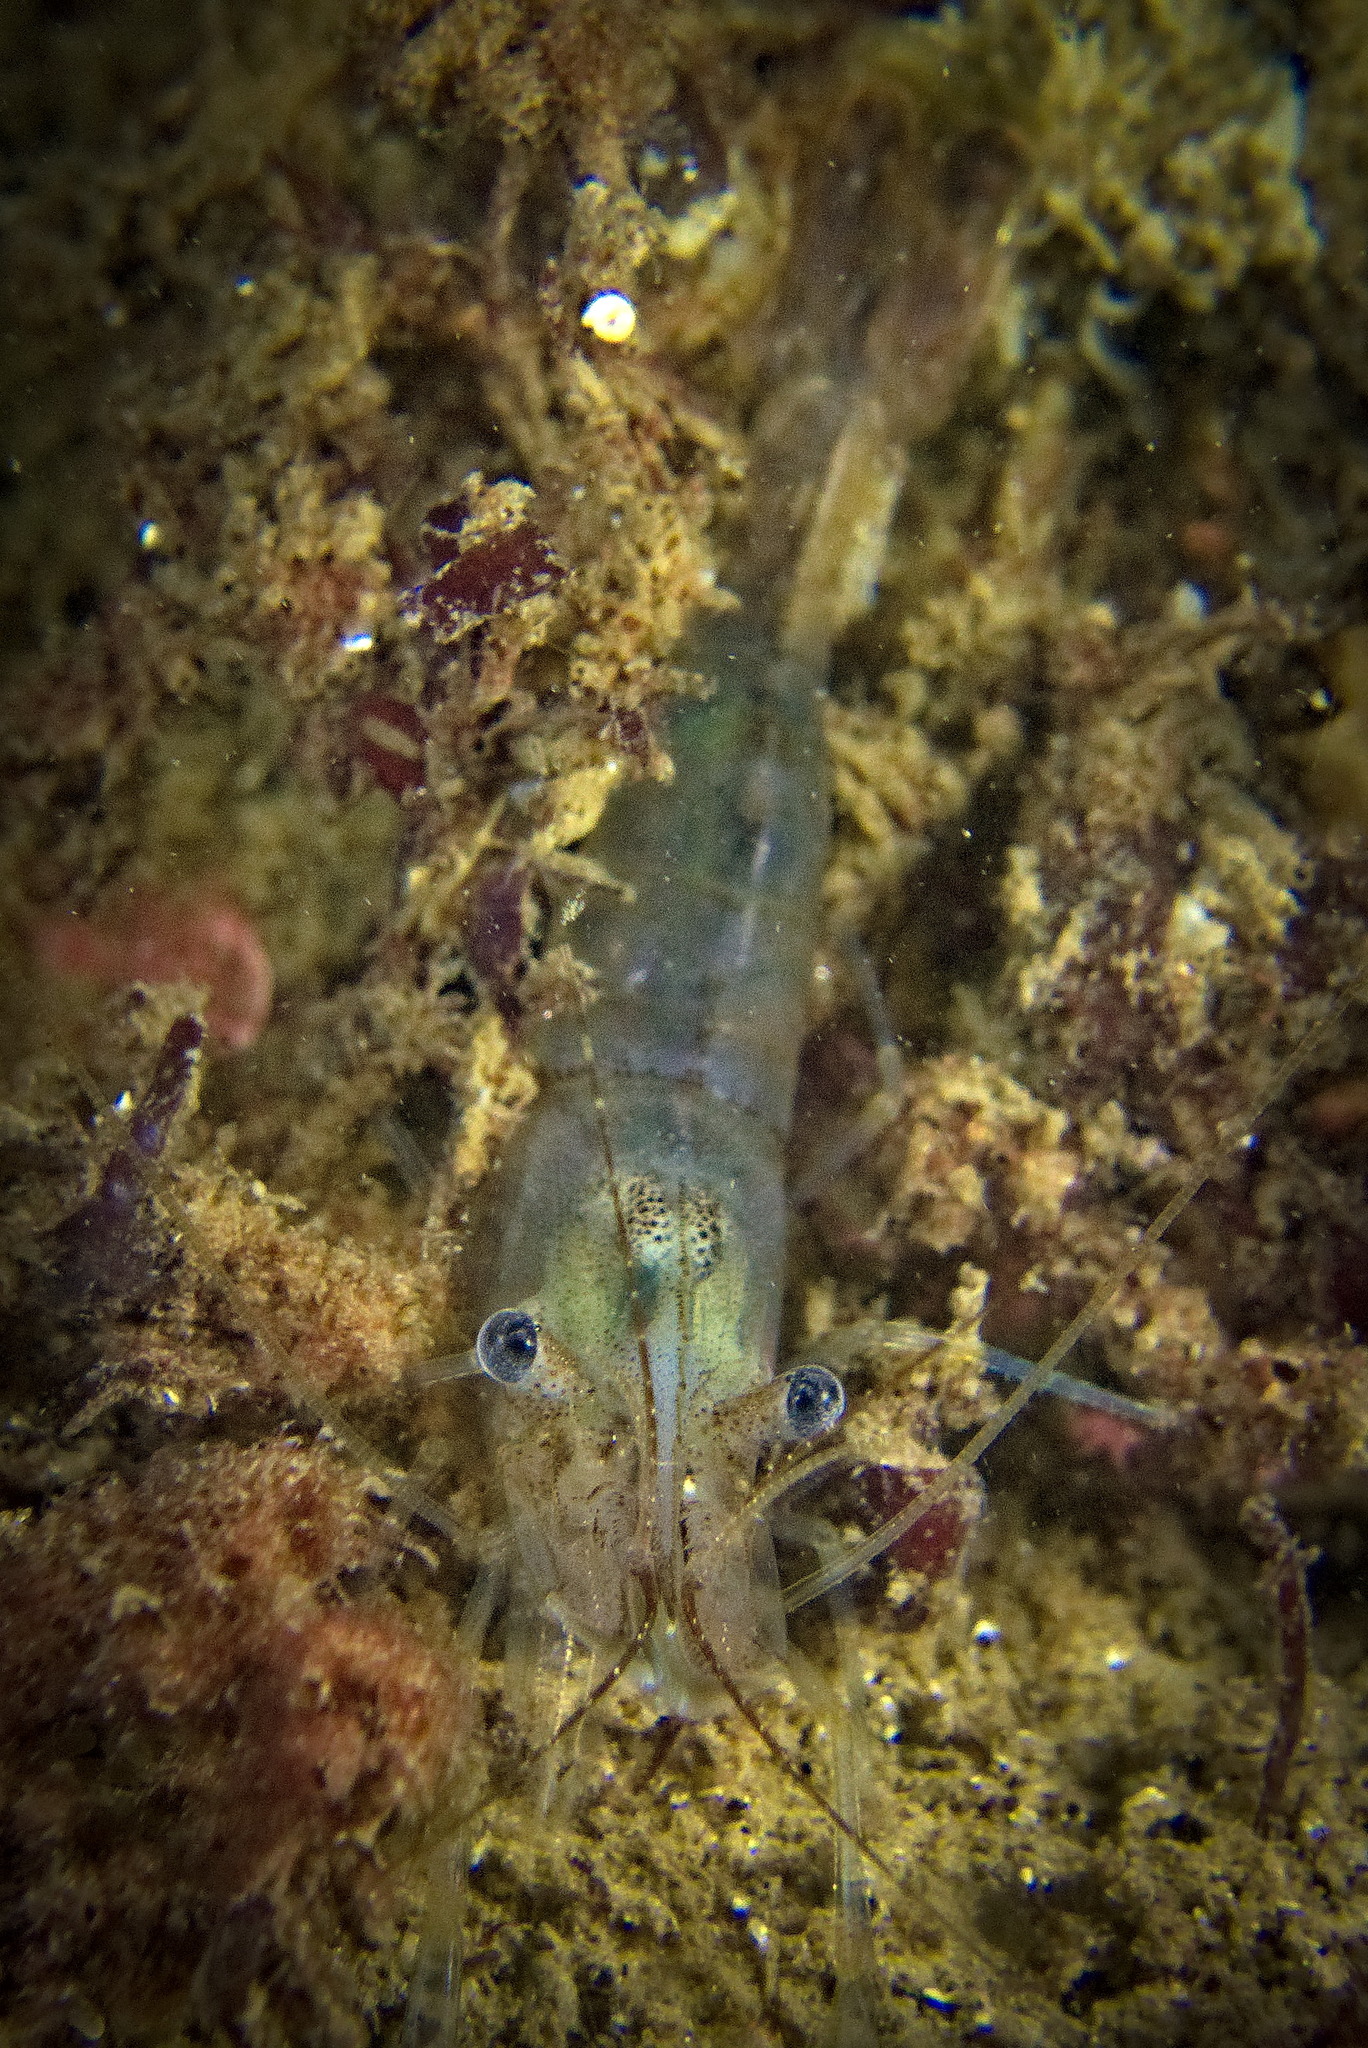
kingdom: Animalia
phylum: Arthropoda
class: Malacostraca
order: Decapoda
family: Palaemonidae
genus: Palaemon
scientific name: Palaemon adspersus
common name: Baltic prawn
